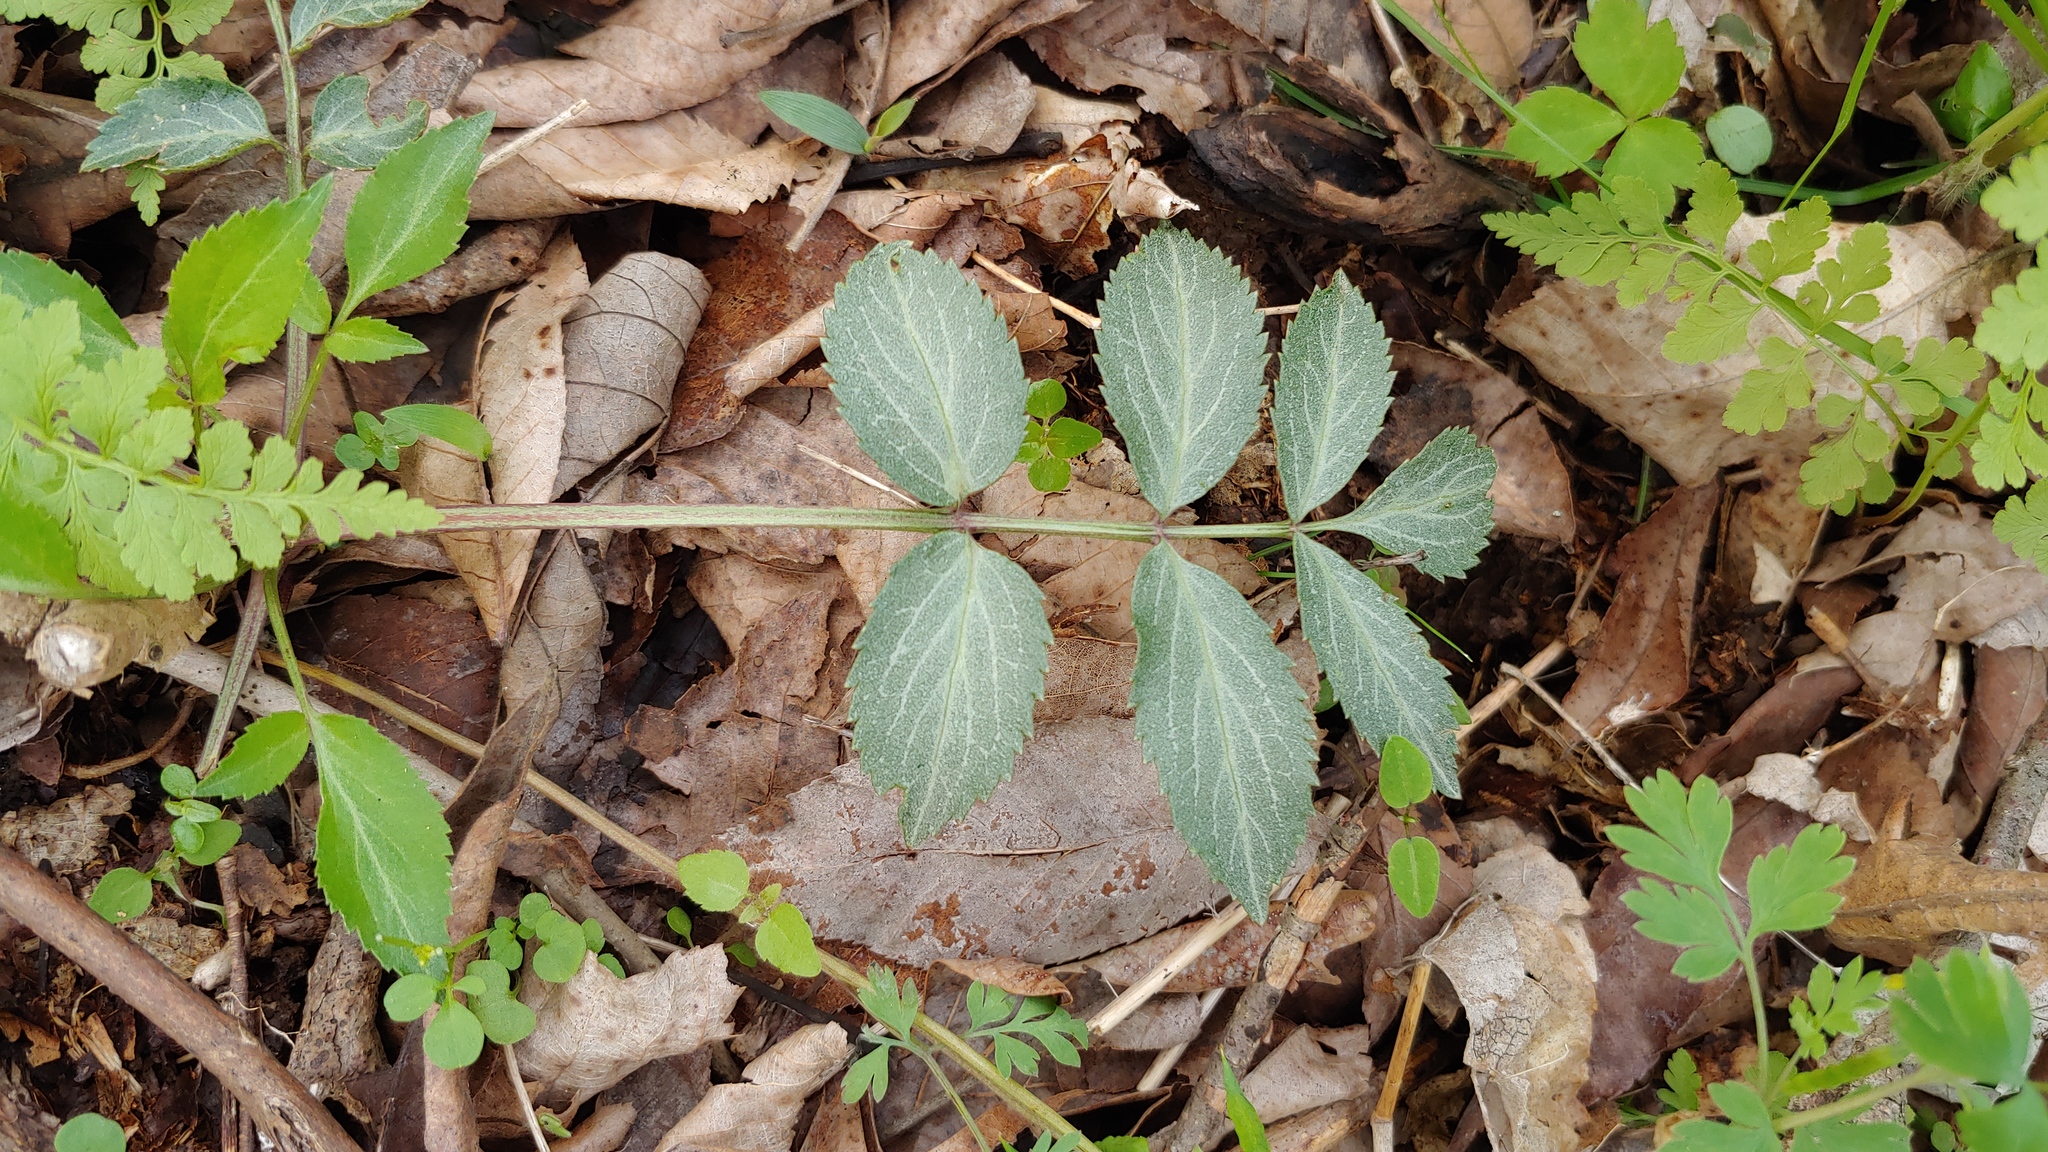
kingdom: Plantae
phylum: Tracheophyta
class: Magnoliopsida
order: Dipsacales
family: Viburnaceae
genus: Sambucus
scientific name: Sambucus canadensis
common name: American elder
